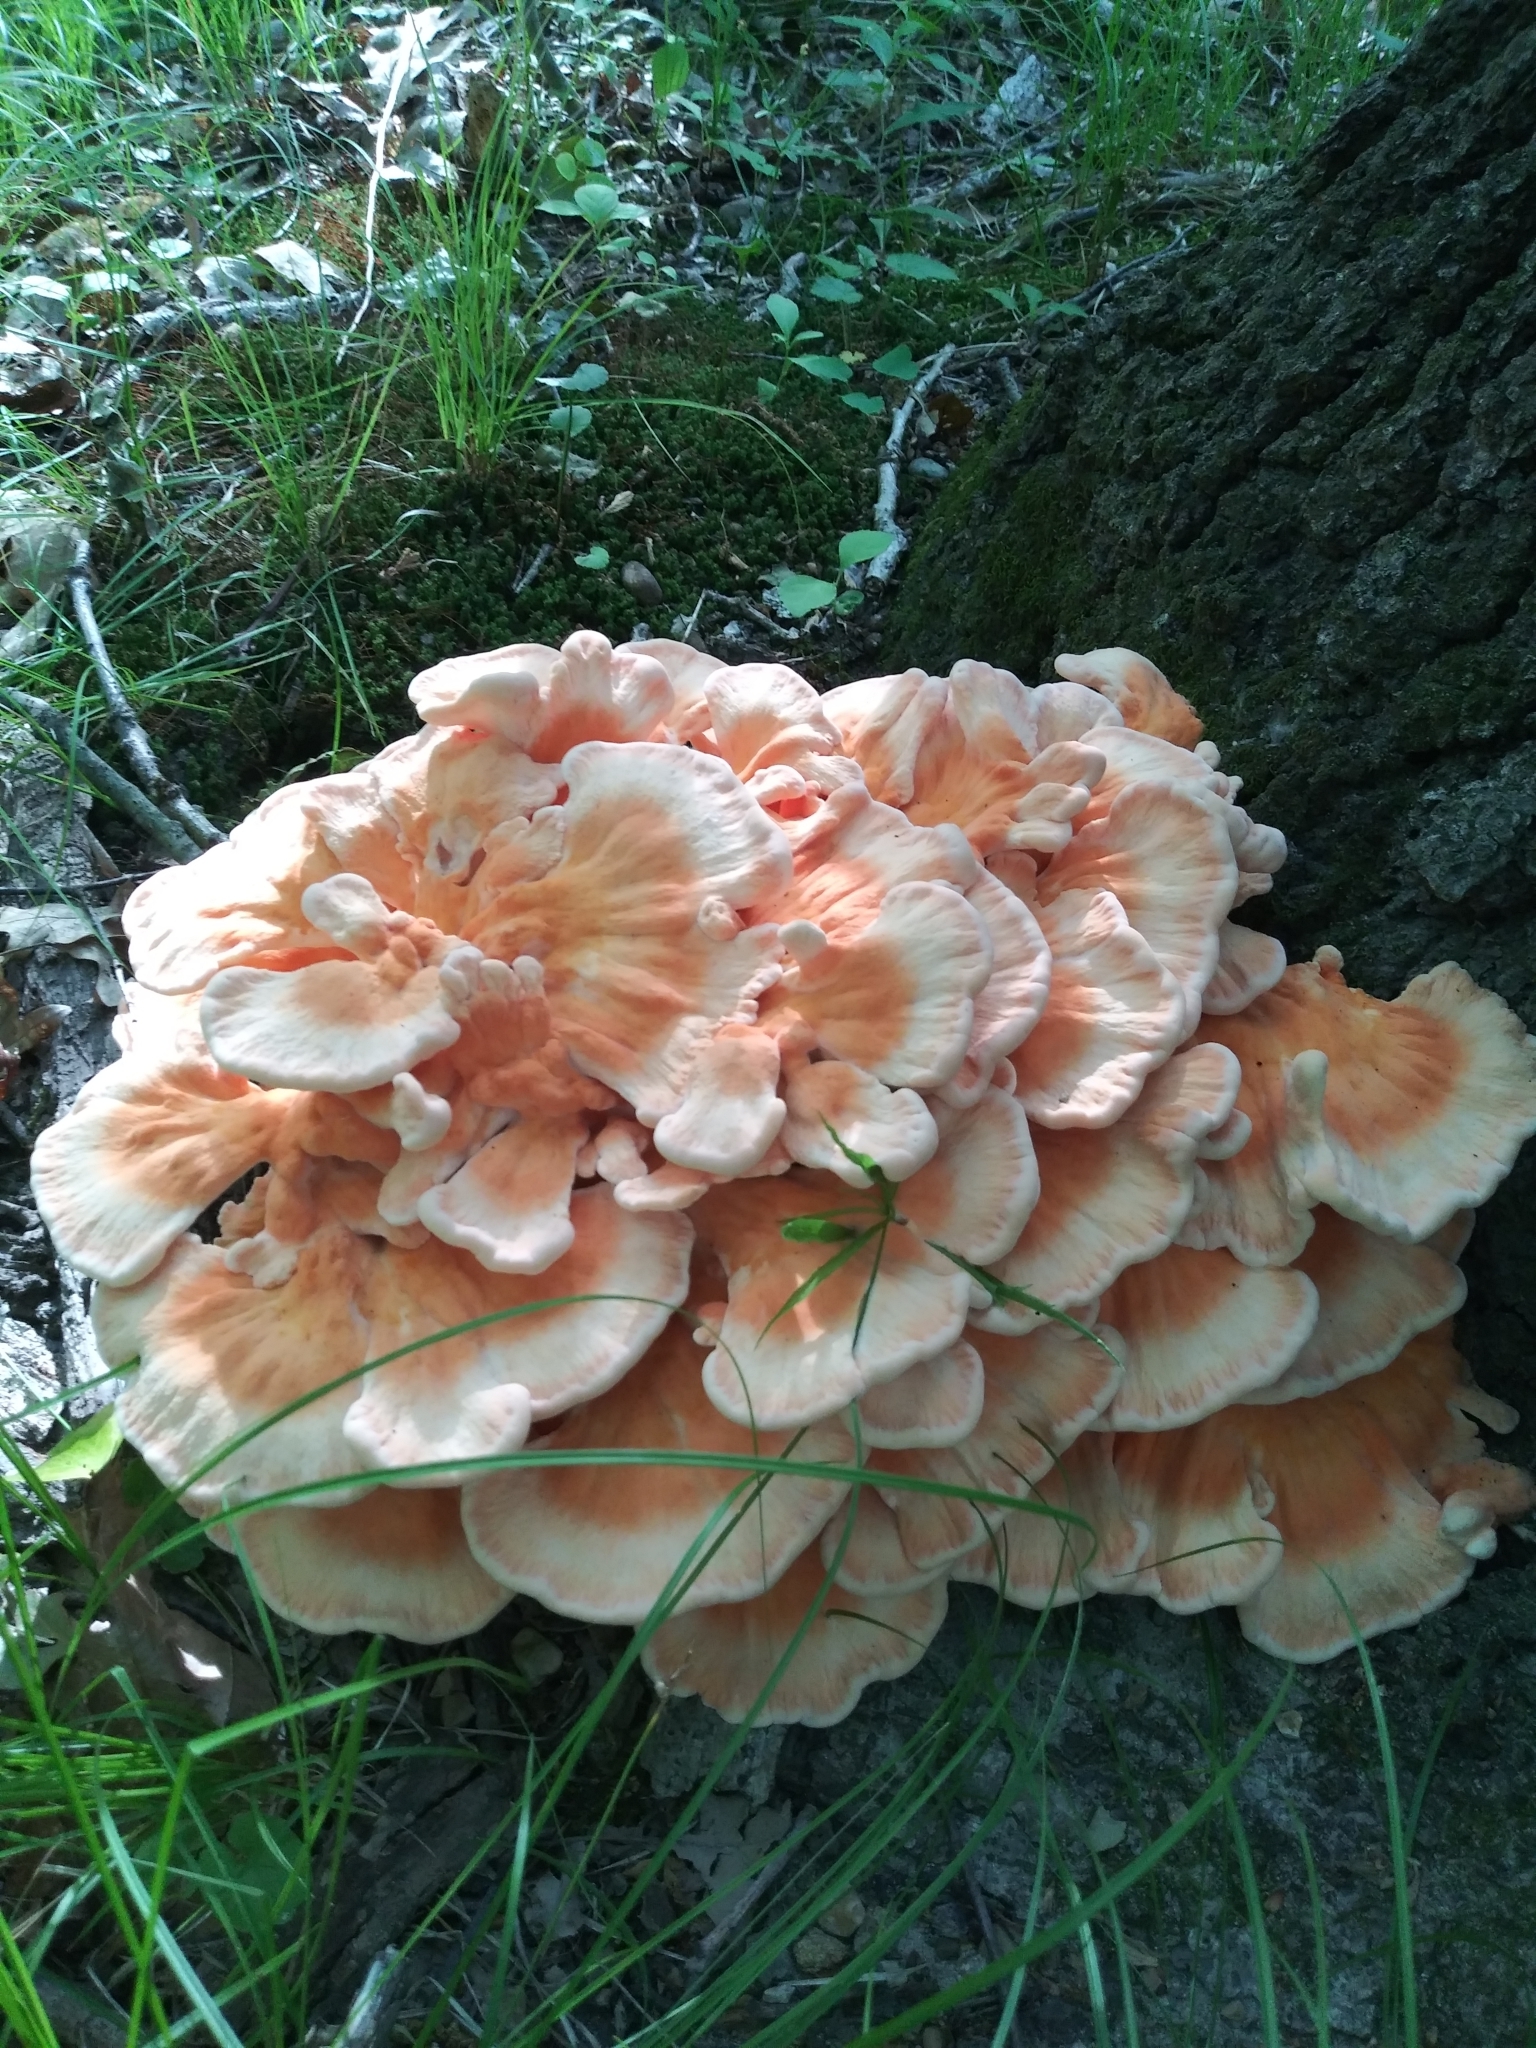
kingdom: Fungi
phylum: Basidiomycota
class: Agaricomycetes
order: Polyporales
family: Laetiporaceae
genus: Laetiporus
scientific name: Laetiporus sulphureus
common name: Chicken of the woods
